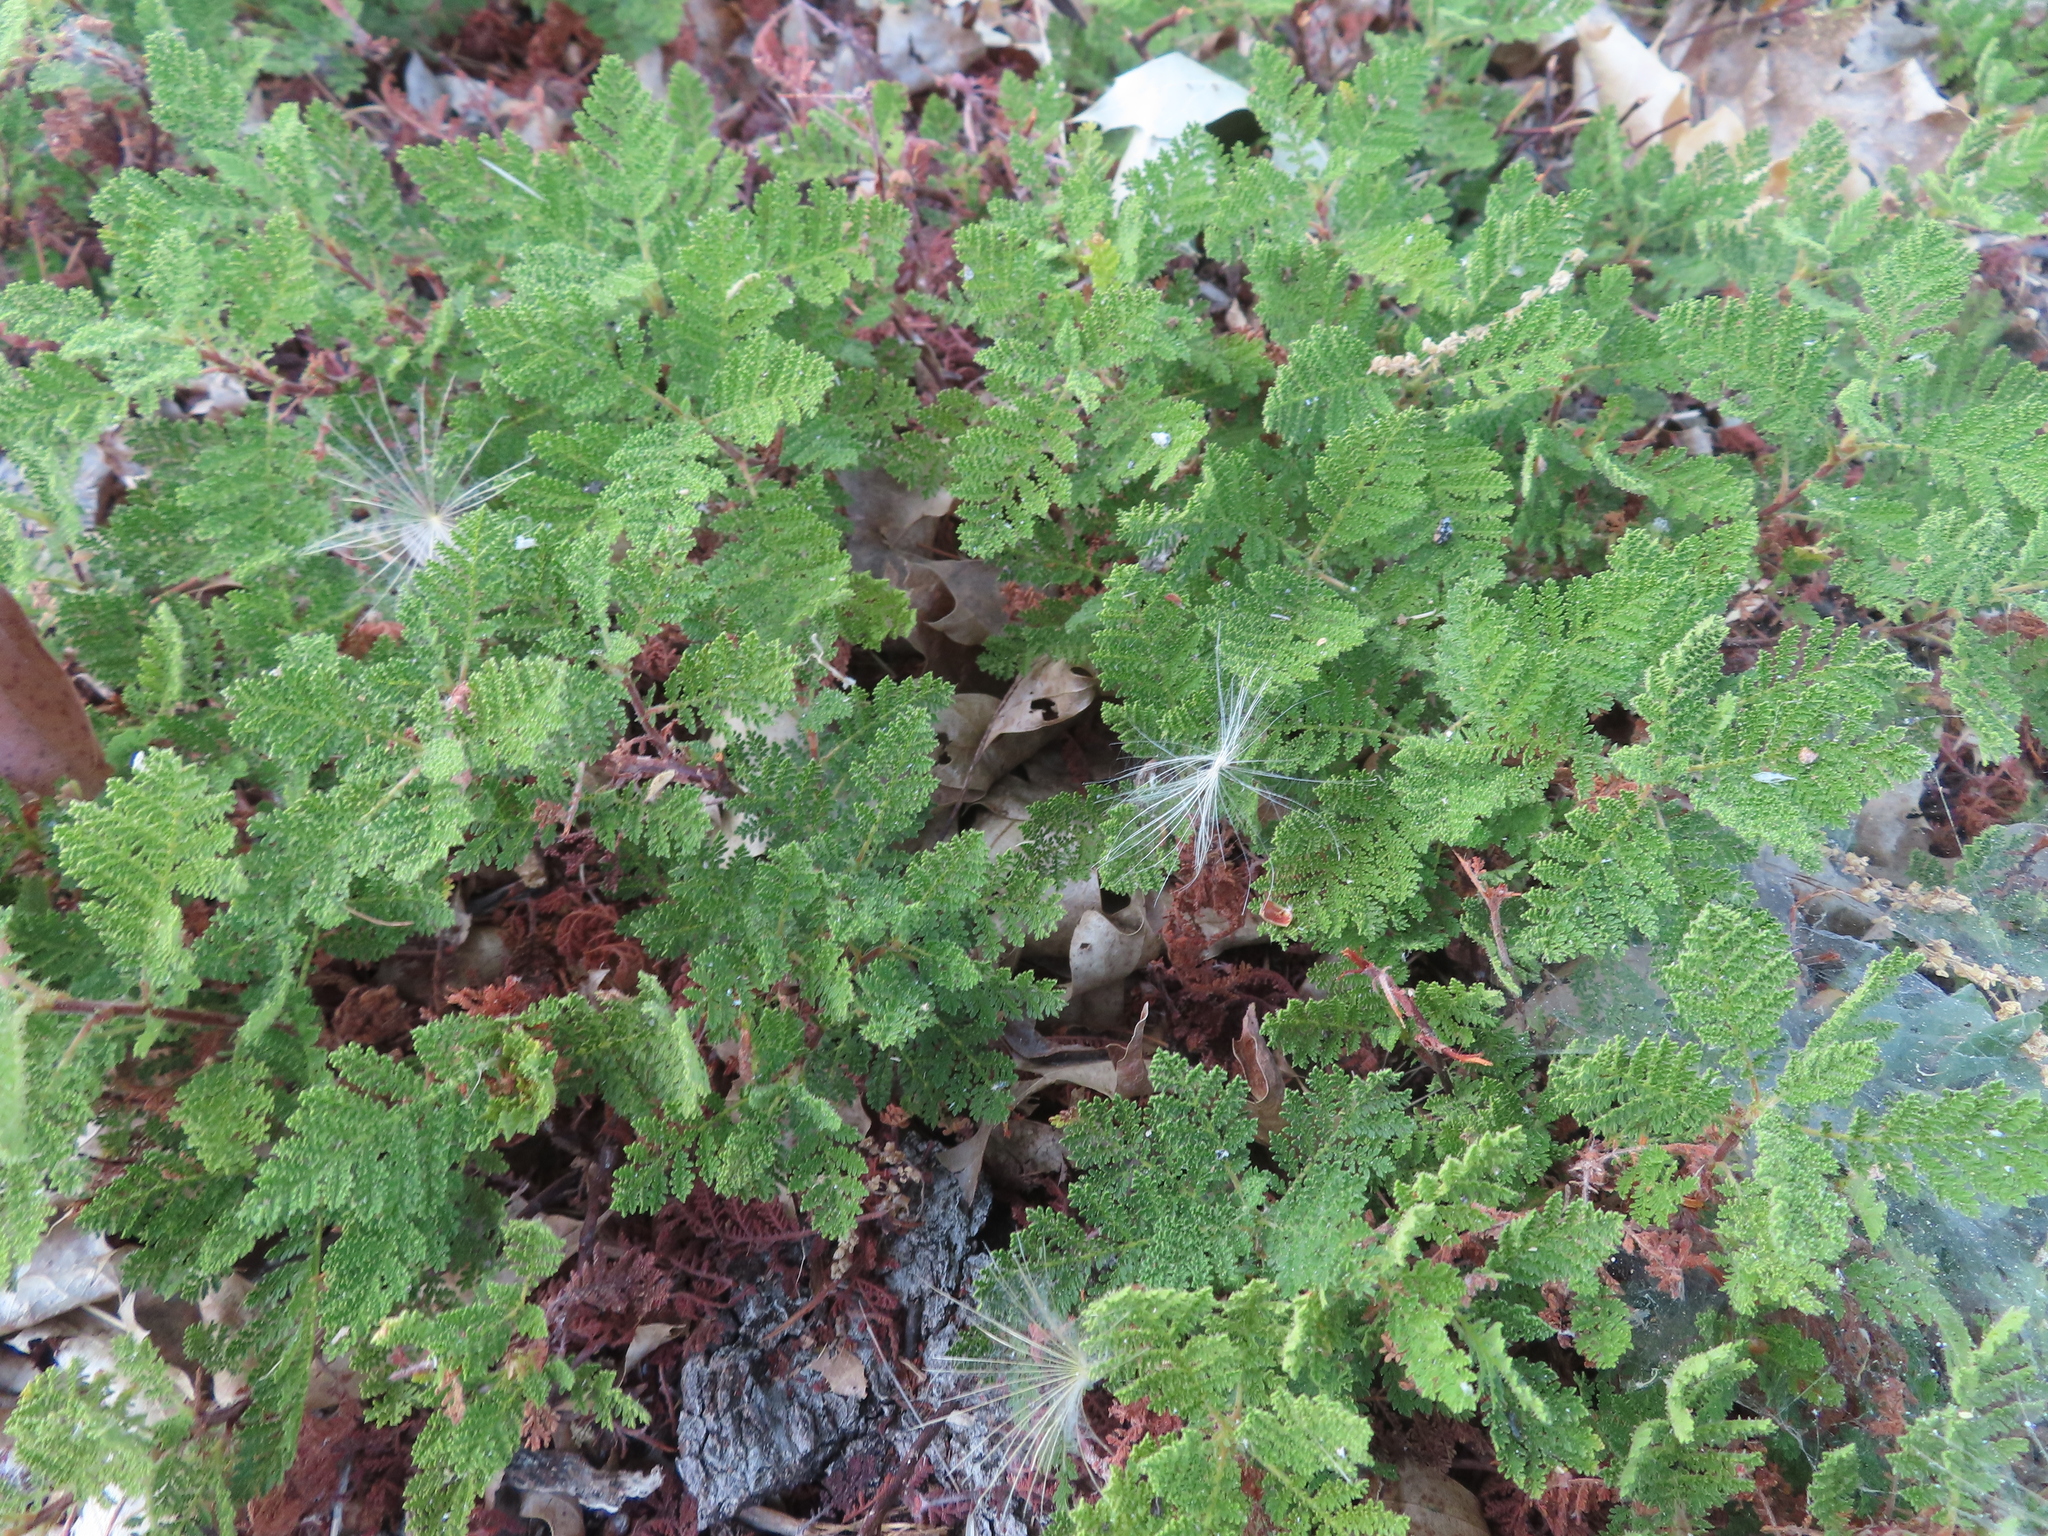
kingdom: Plantae
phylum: Tracheophyta
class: Magnoliopsida
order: Rosales
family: Rosaceae
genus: Chamaebatia
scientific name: Chamaebatia foliolosa
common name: Mountain misery
